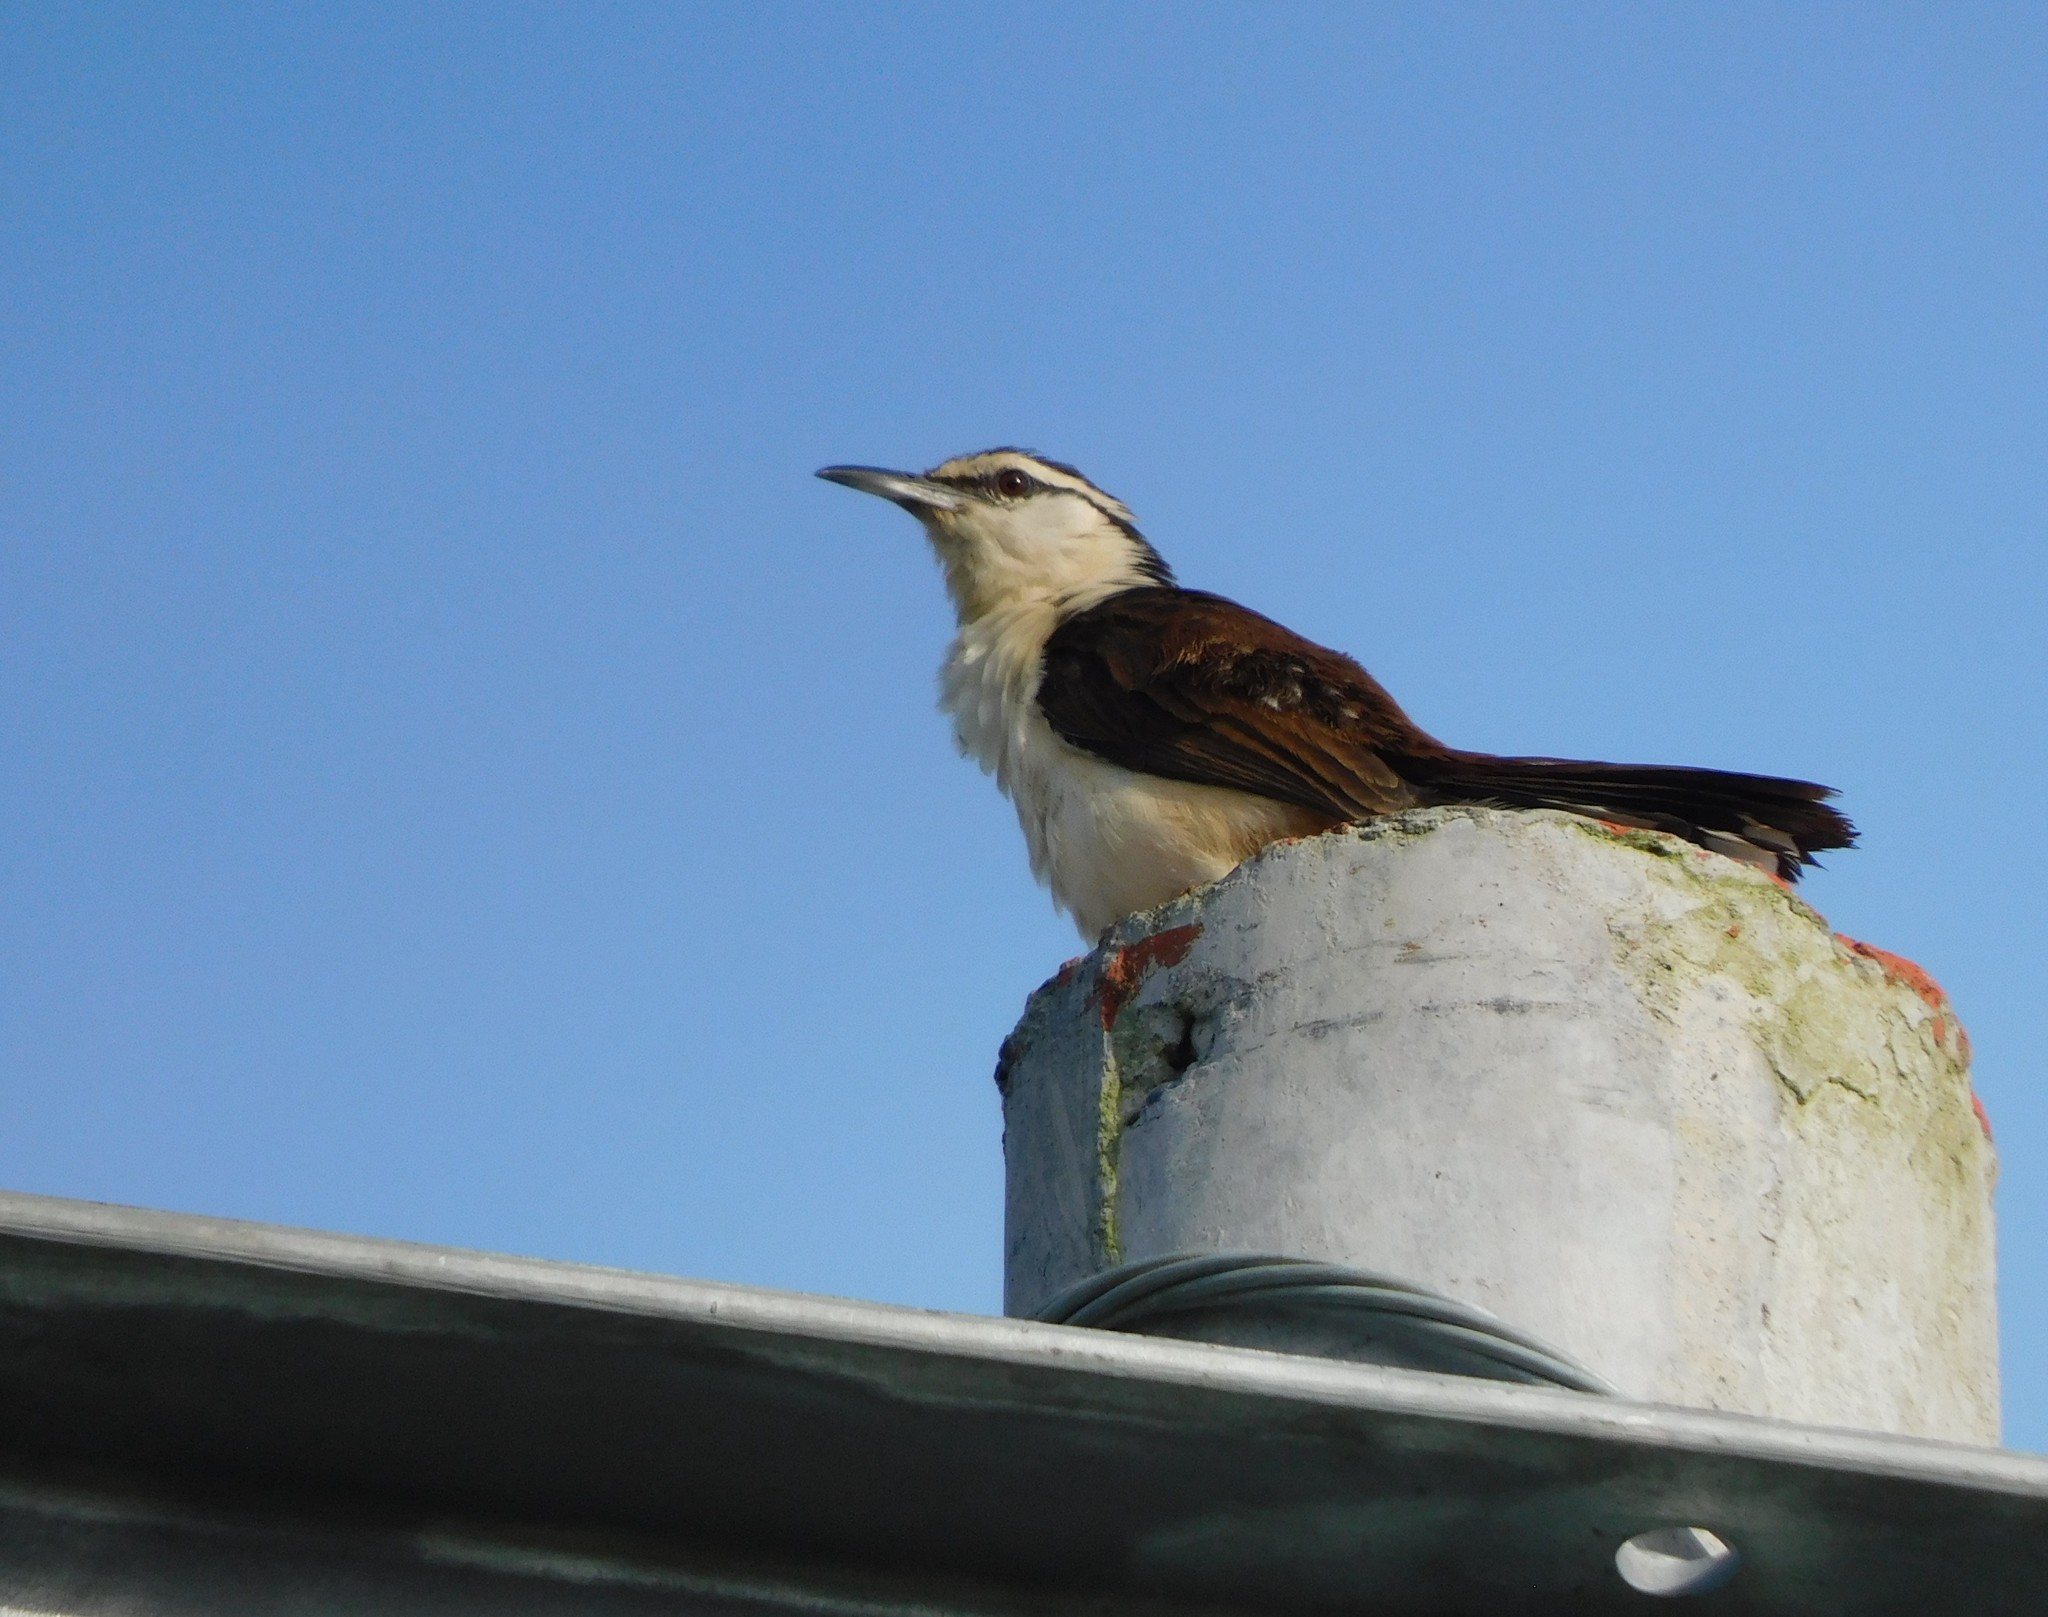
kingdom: Animalia
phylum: Chordata
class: Aves
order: Passeriformes
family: Troglodytidae
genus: Campylorhynchus
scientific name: Campylorhynchus griseus
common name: Bicolored wren
